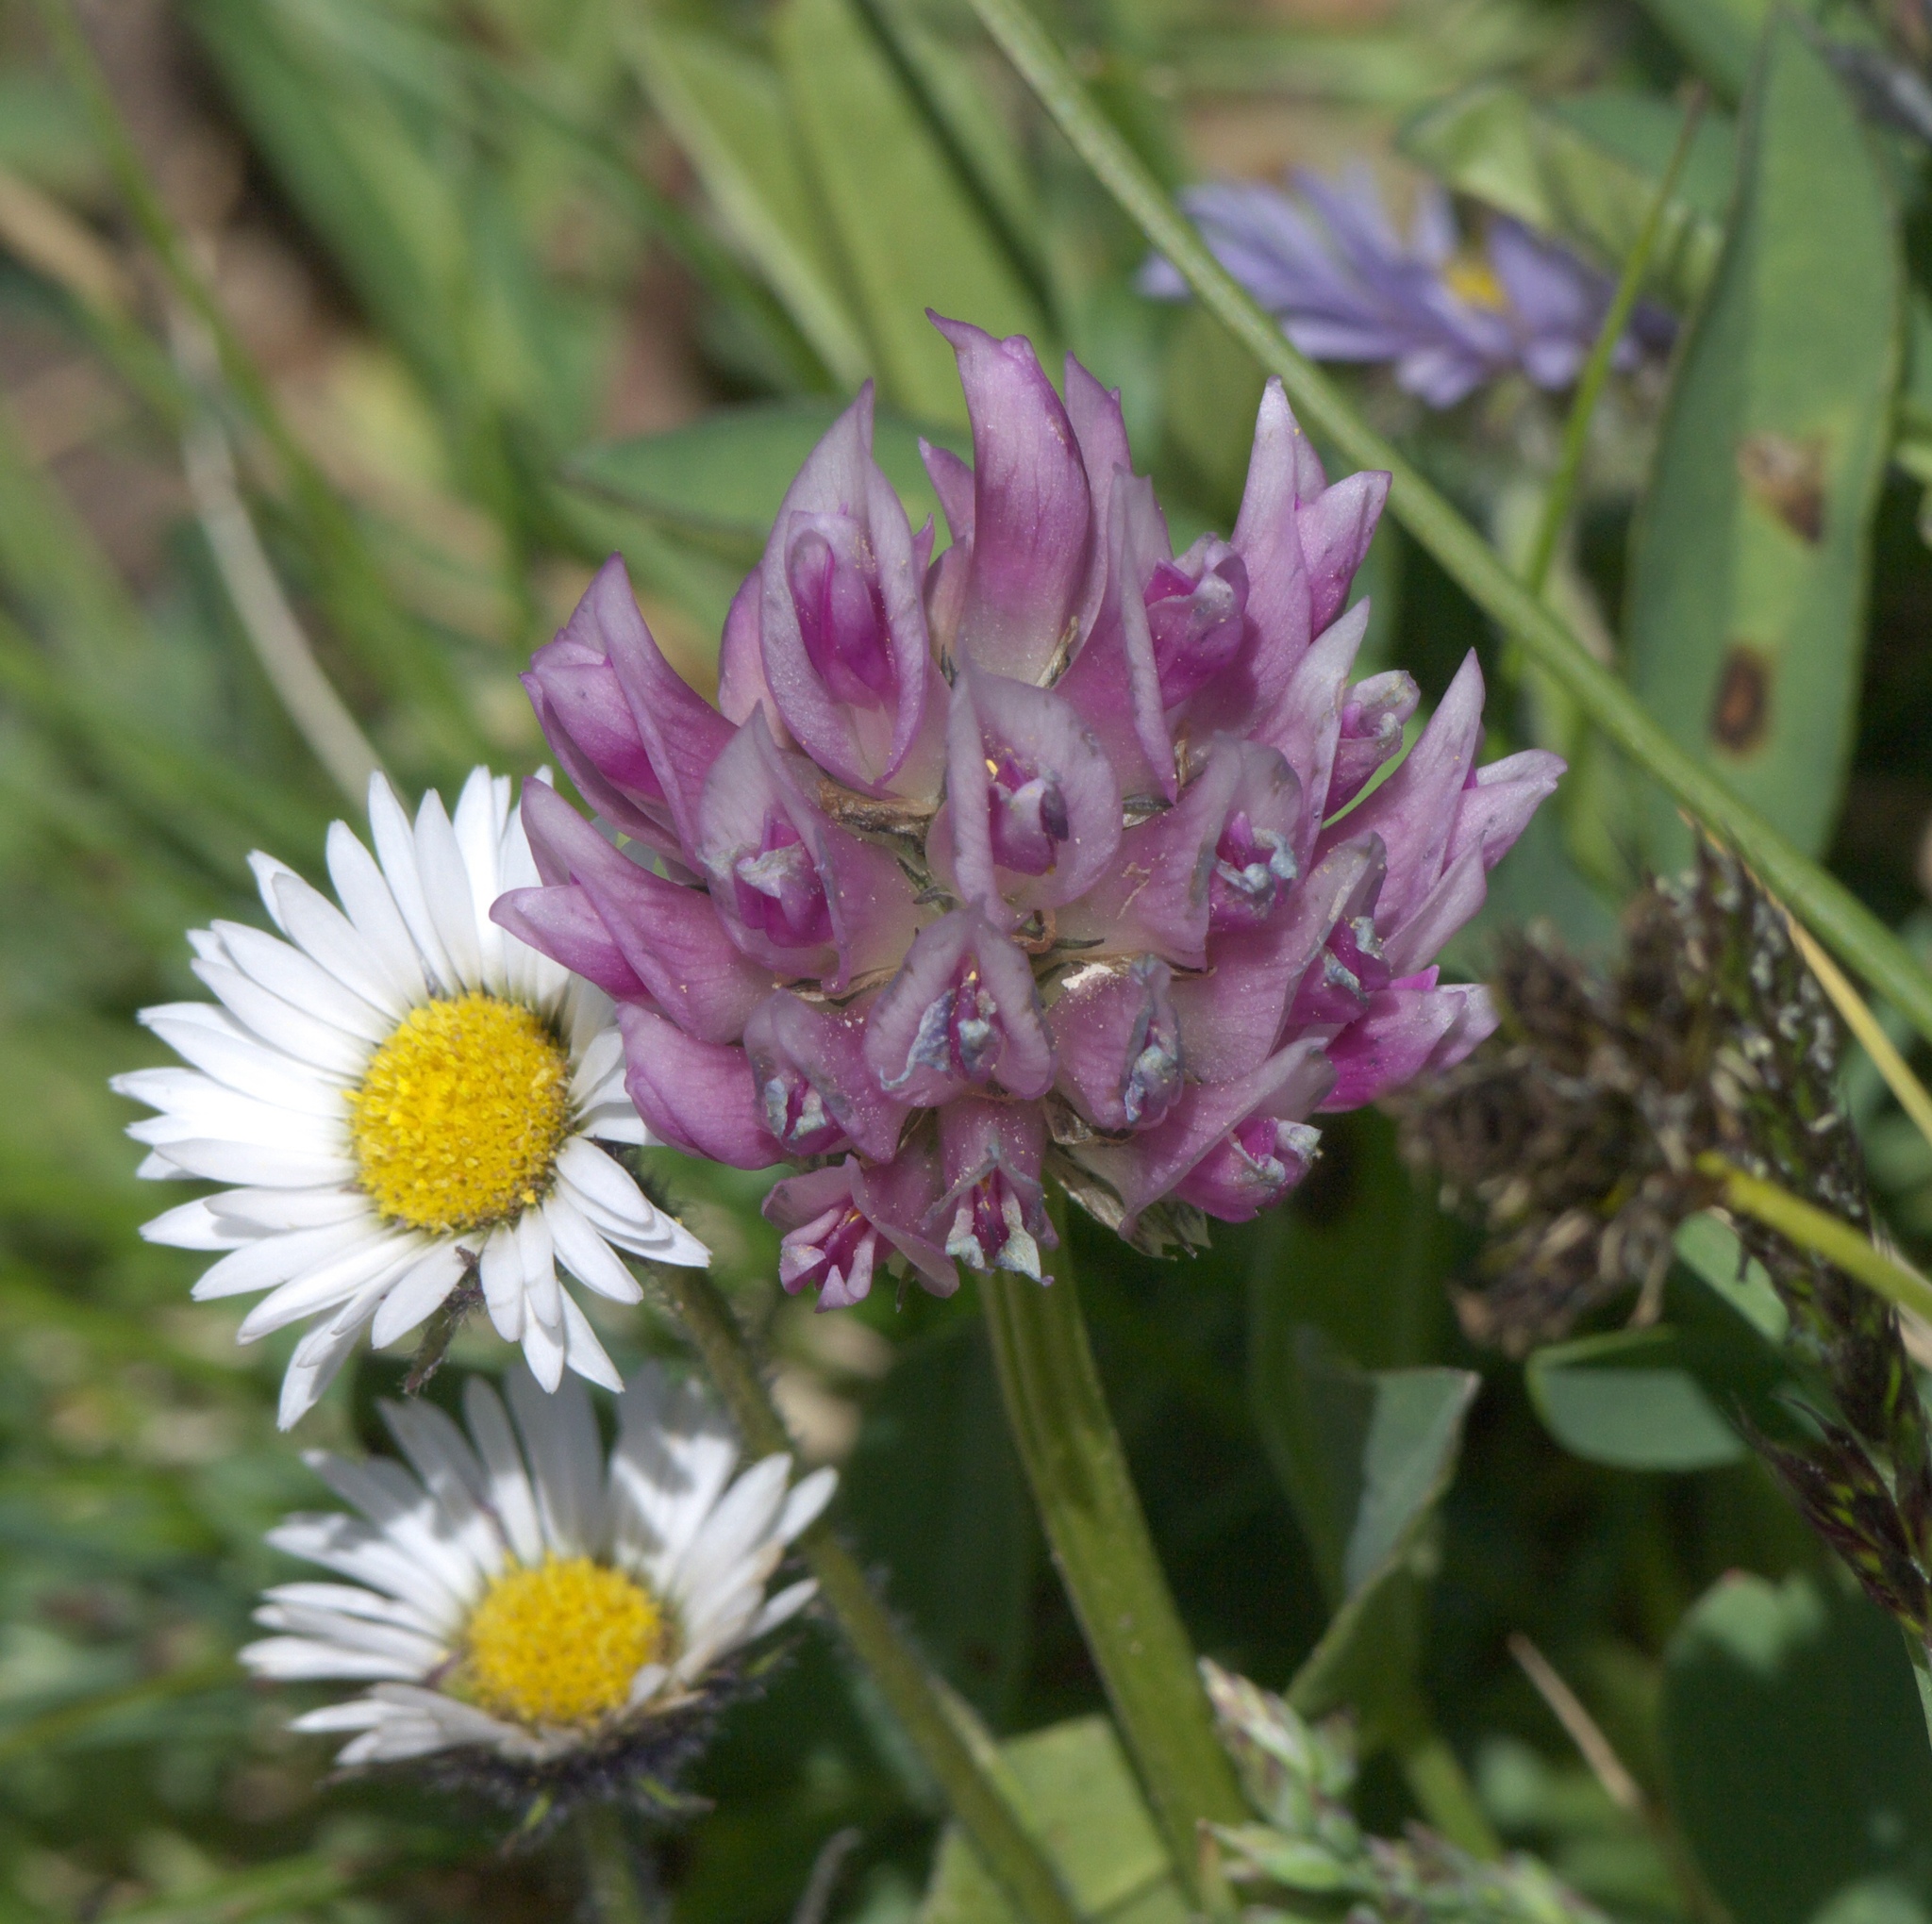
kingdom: Plantae
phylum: Tracheophyta
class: Magnoliopsida
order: Fabales
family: Fabaceae
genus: Trifolium
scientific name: Trifolium parryi
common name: Parry's clover
